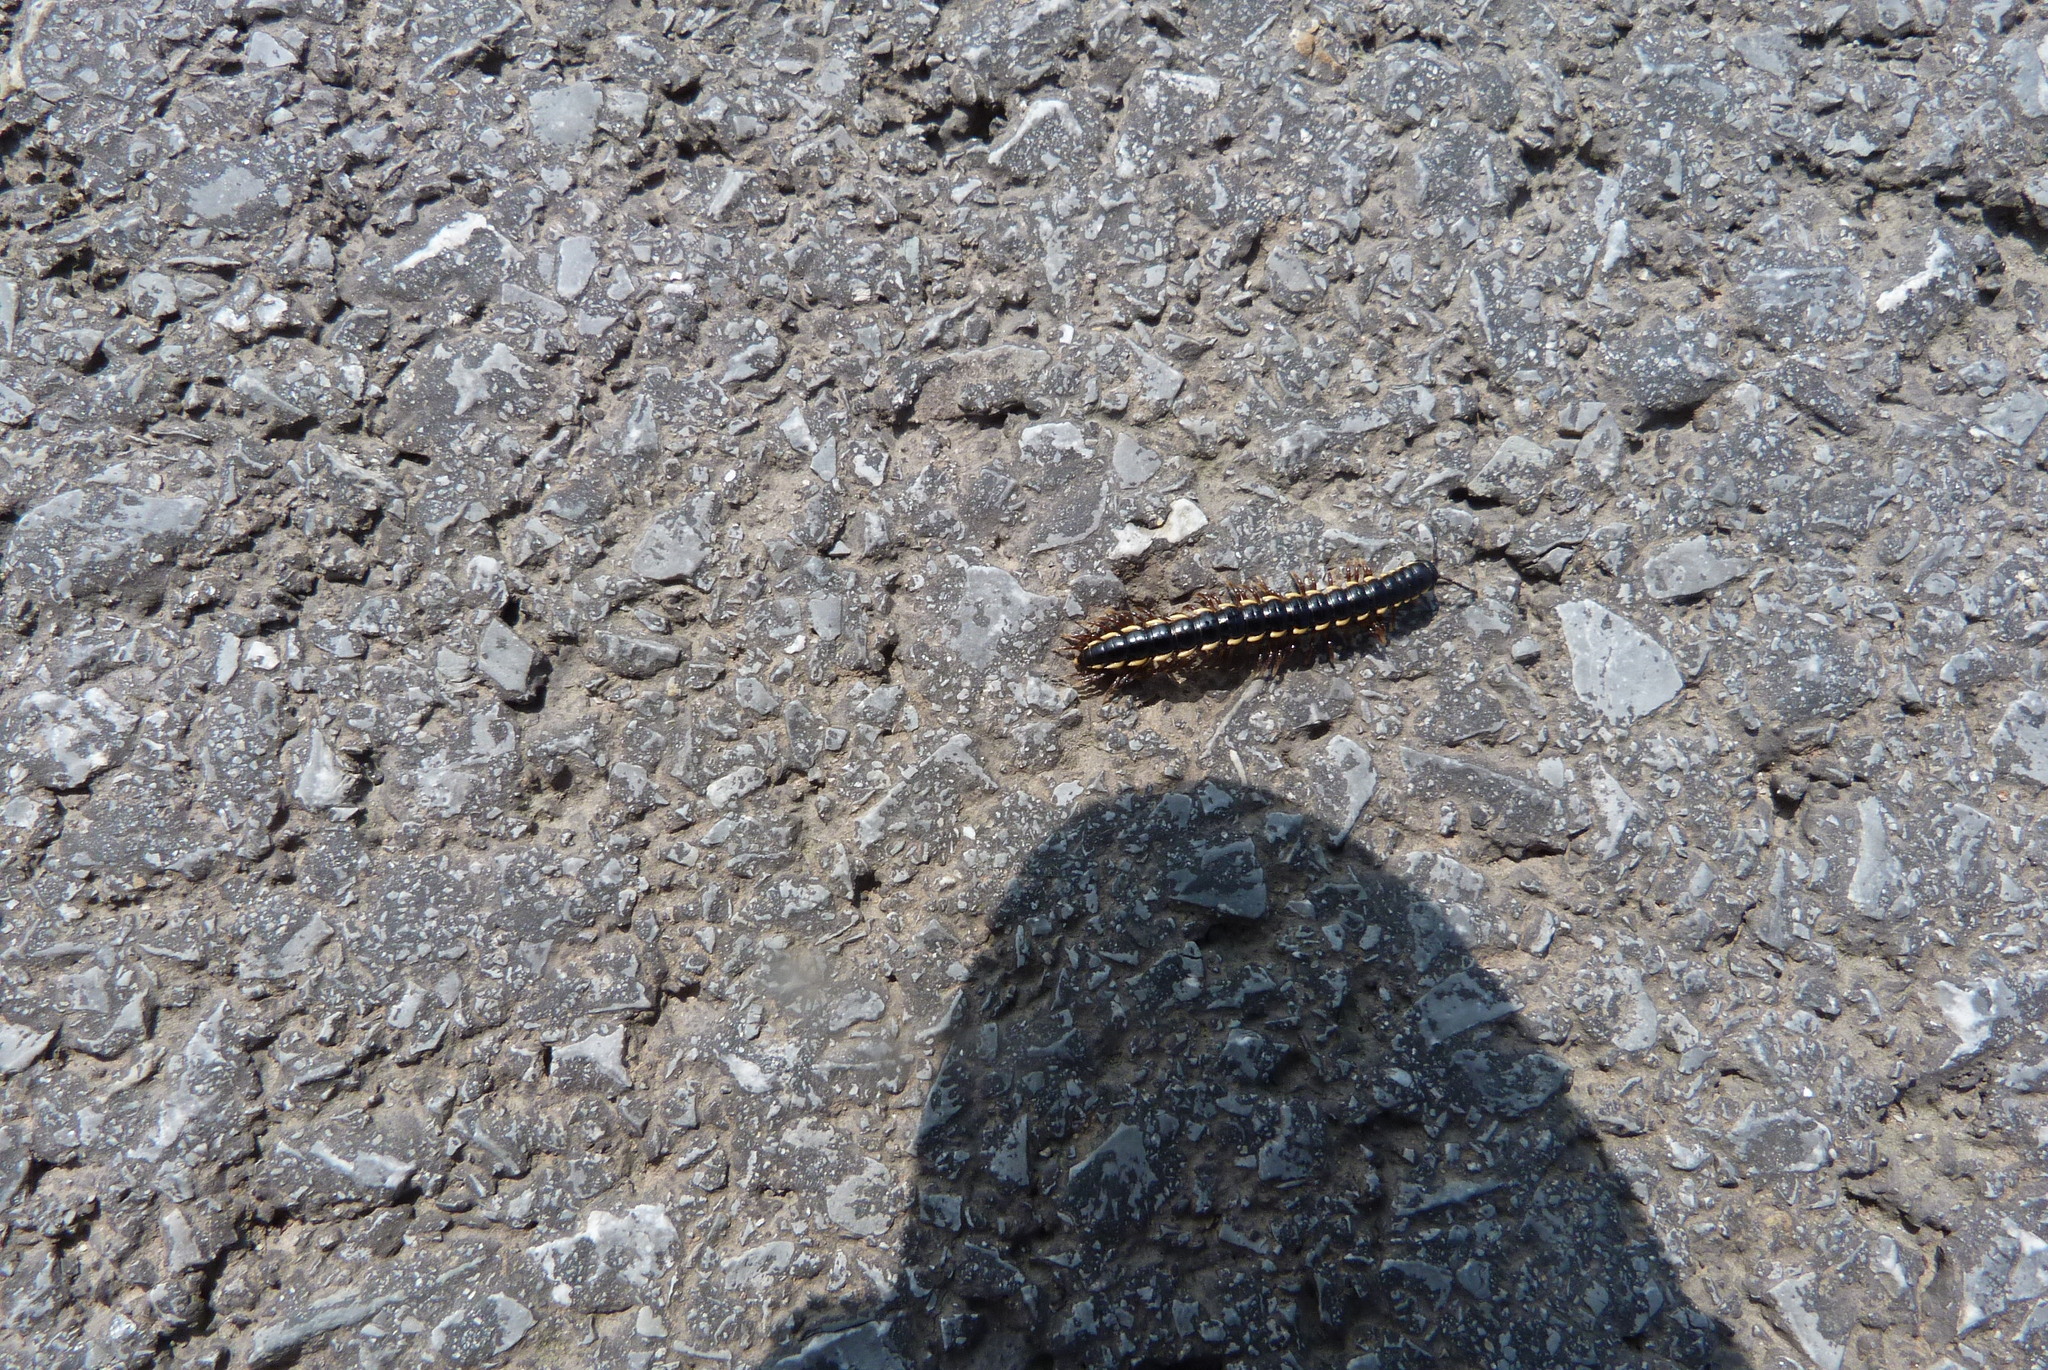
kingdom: Animalia
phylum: Arthropoda
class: Diplopoda
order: Polydesmida
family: Paradoxosomatidae
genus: Orthomorphella
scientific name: Orthomorphella pekuensis
